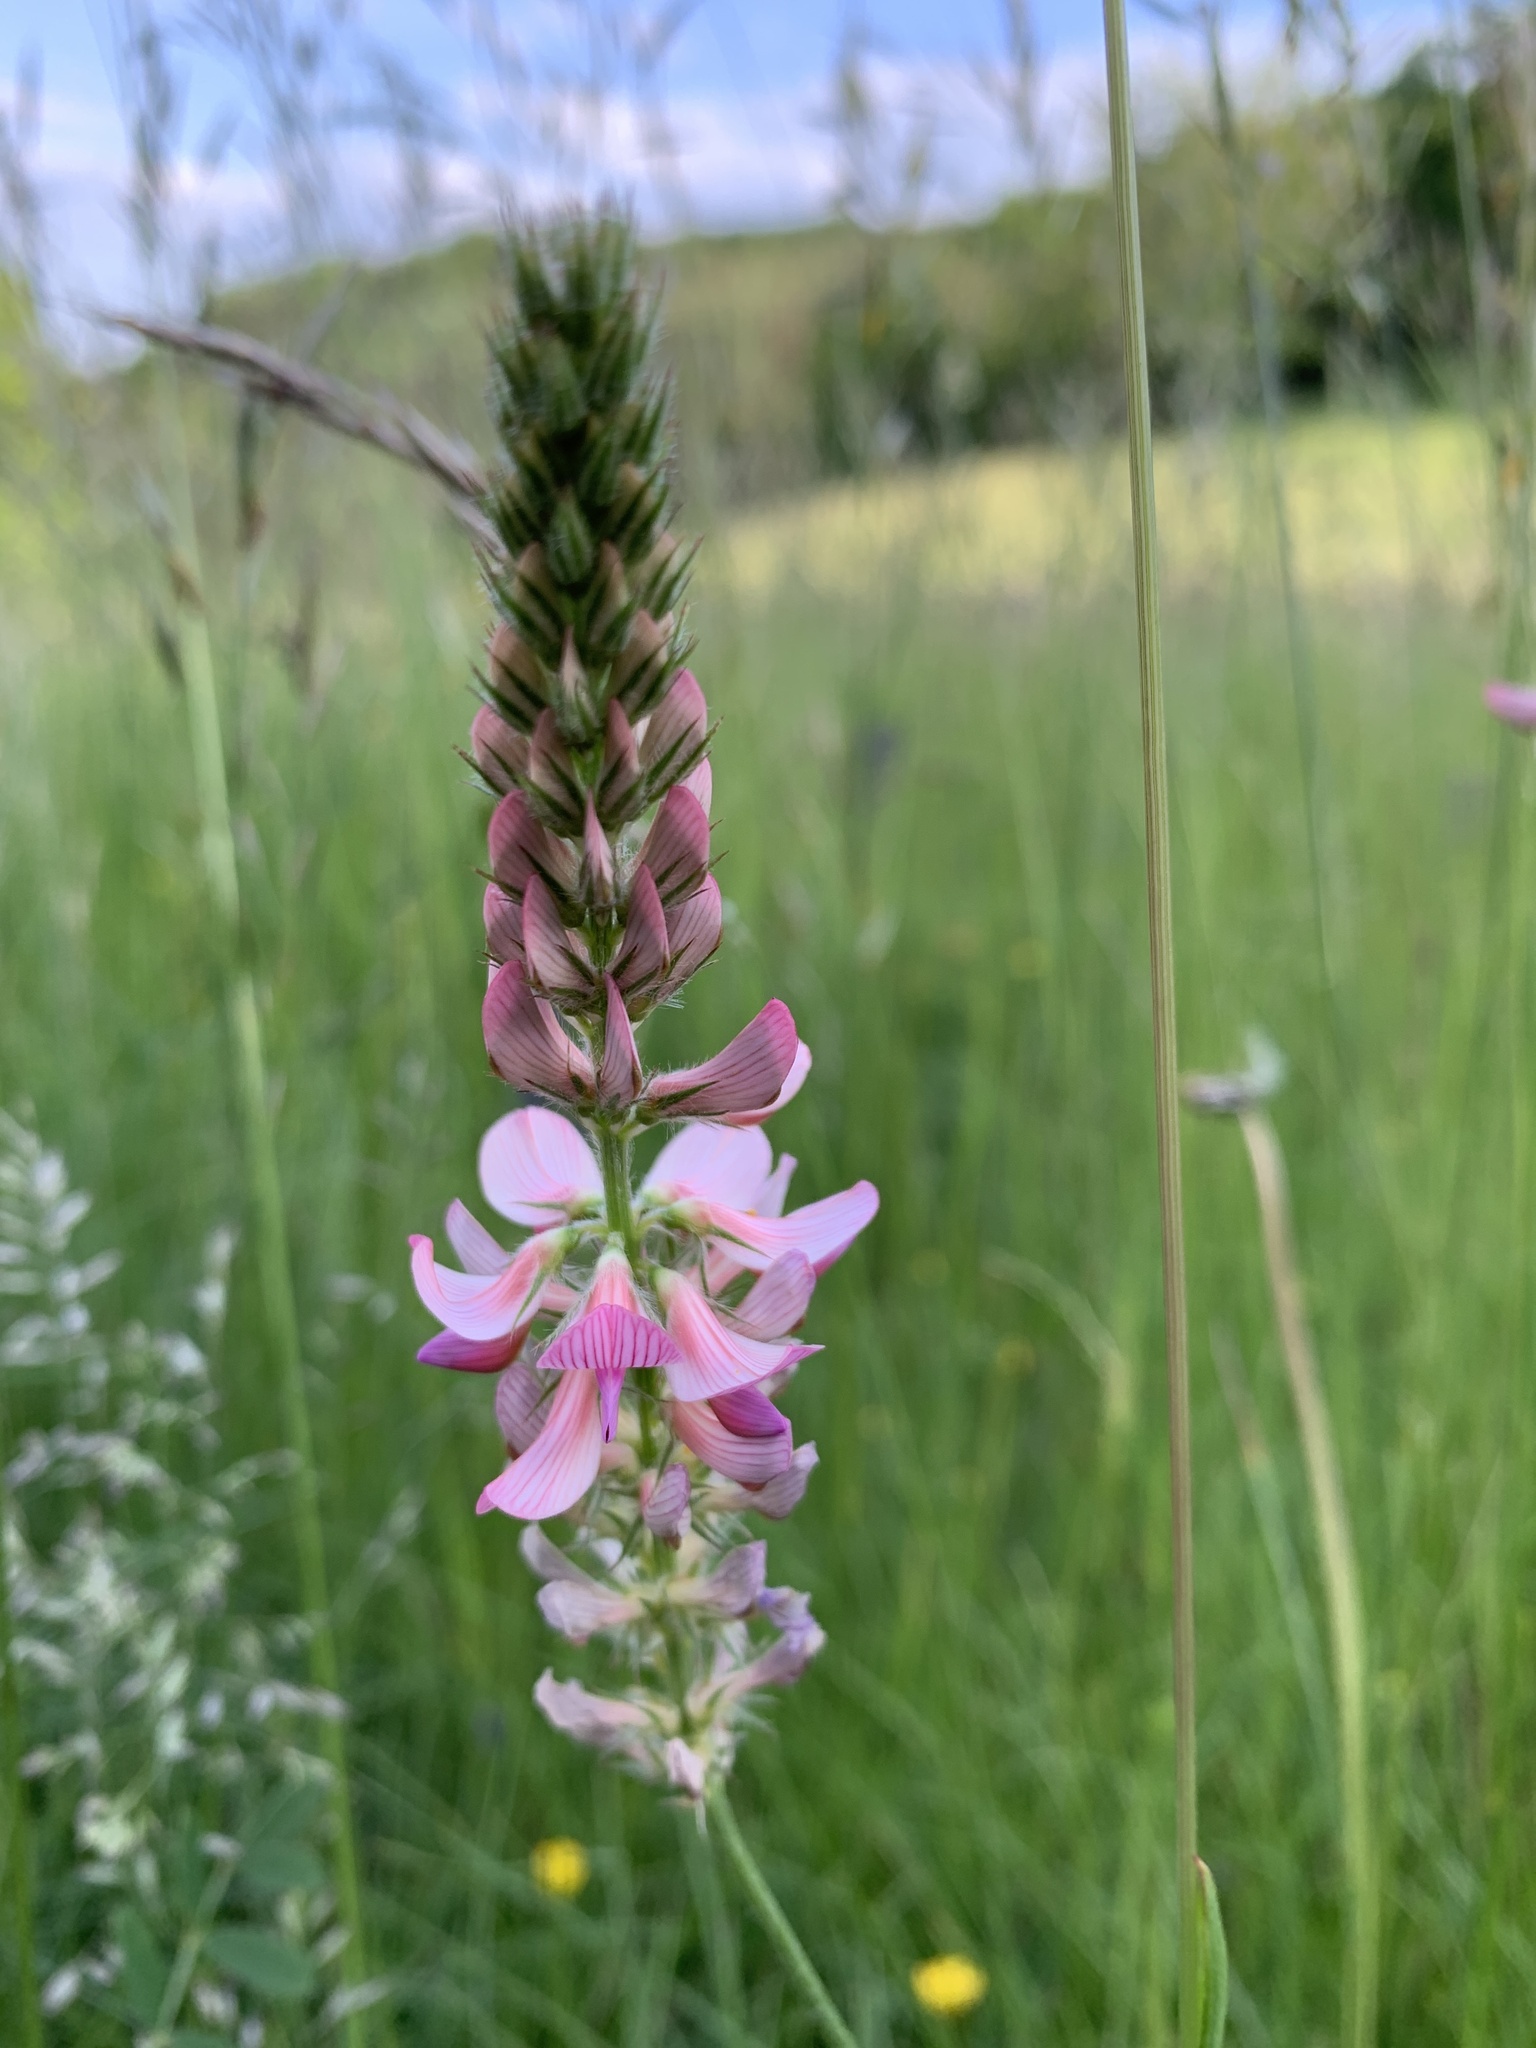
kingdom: Plantae
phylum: Tracheophyta
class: Magnoliopsida
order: Fabales
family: Fabaceae
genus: Onobrychis
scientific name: Onobrychis viciifolia
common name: Sainfoin
